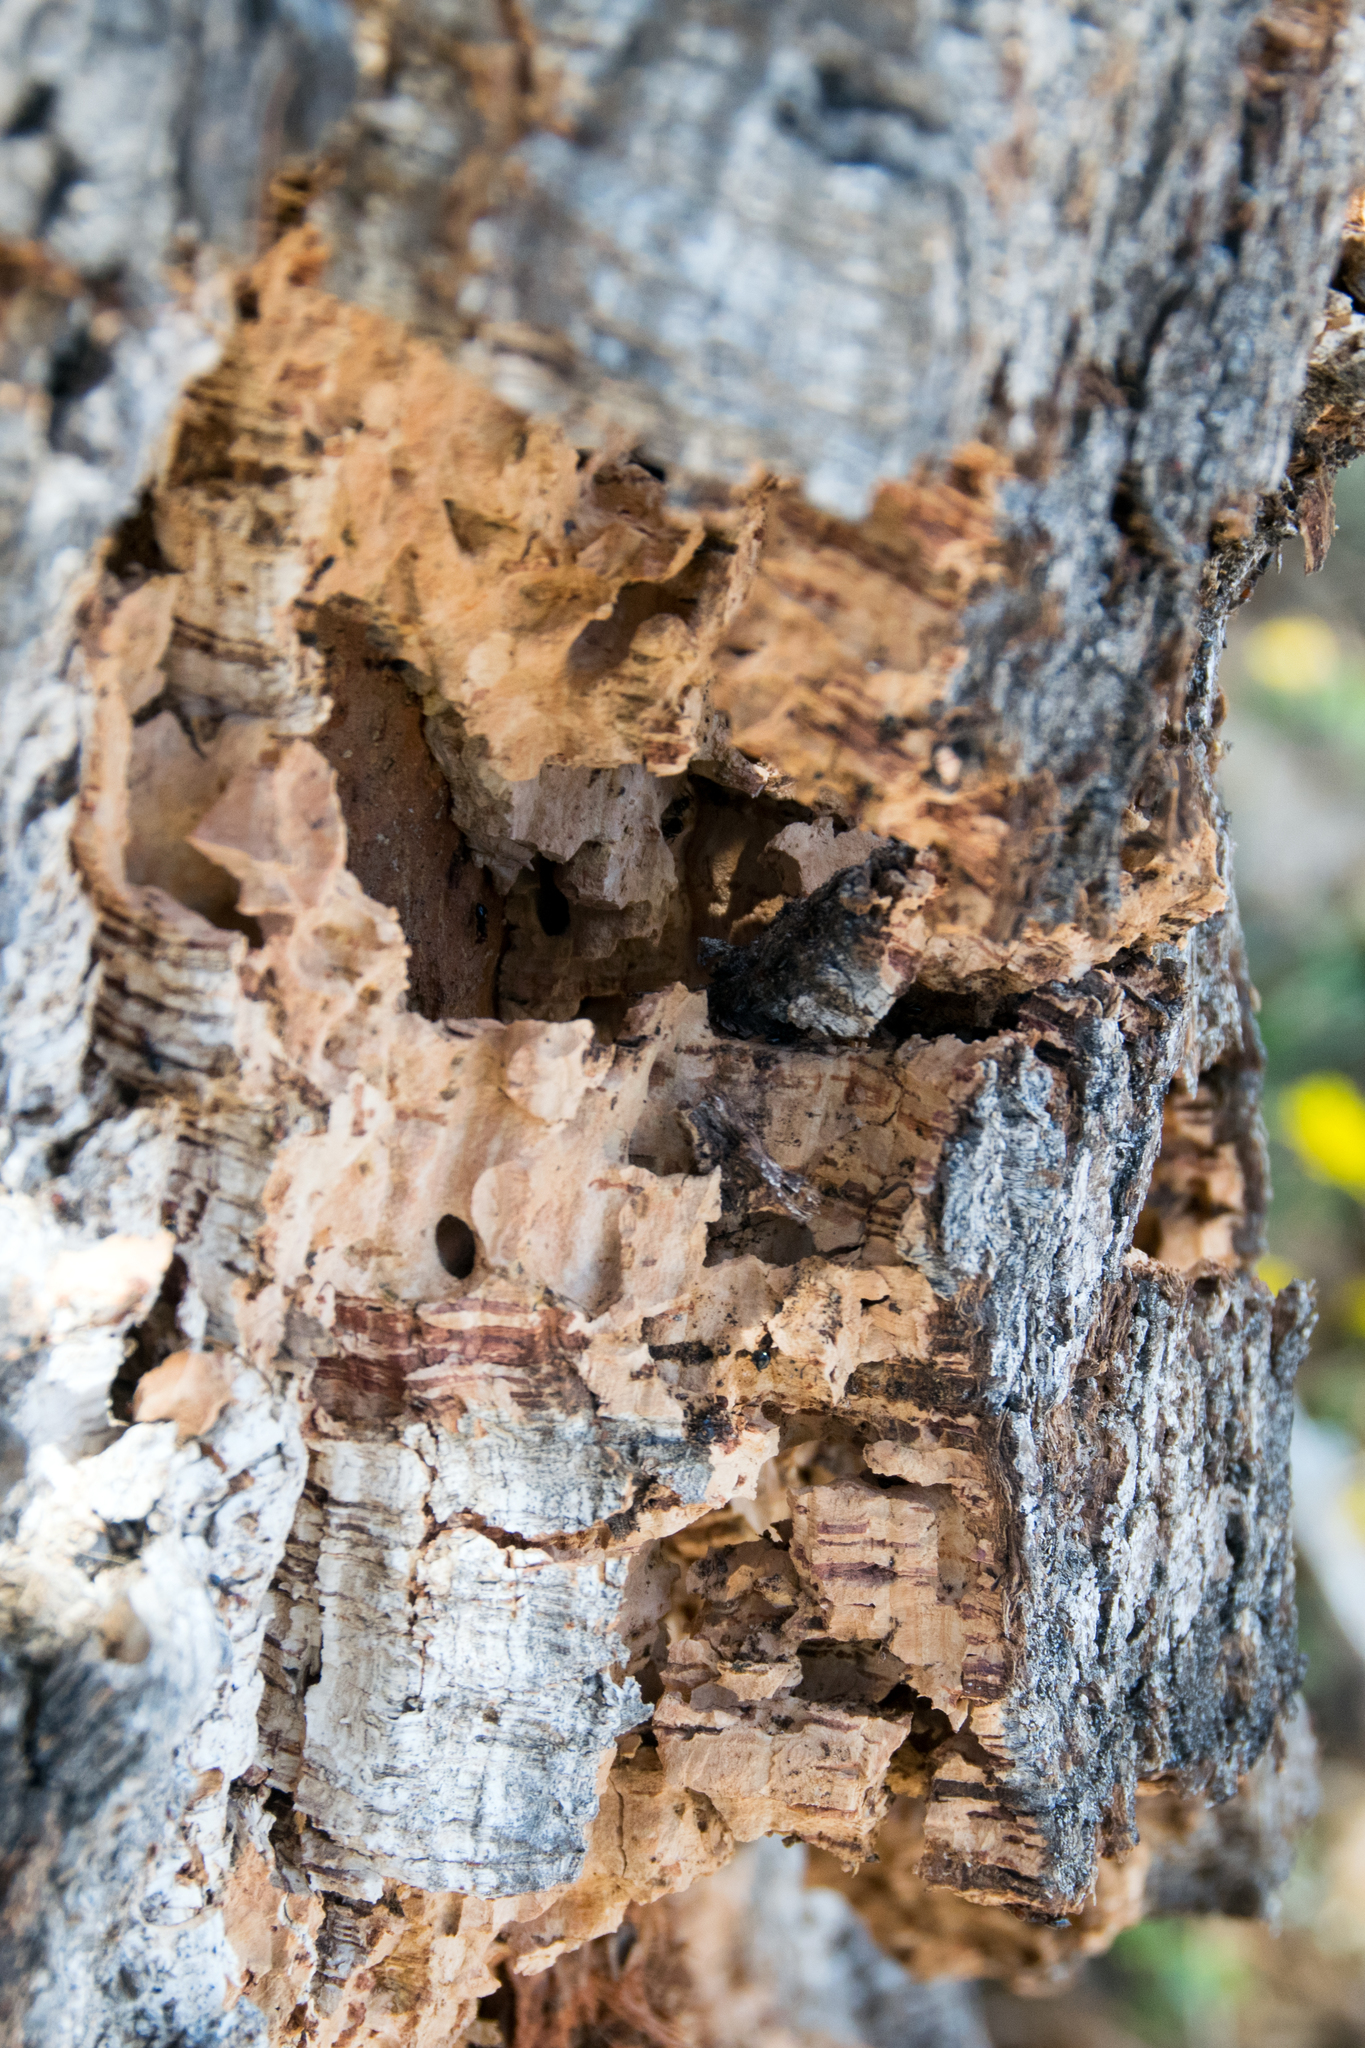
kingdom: Plantae
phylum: Tracheophyta
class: Magnoliopsida
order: Fagales
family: Fagaceae
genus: Quercus
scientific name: Quercus suber
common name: Cork oak
